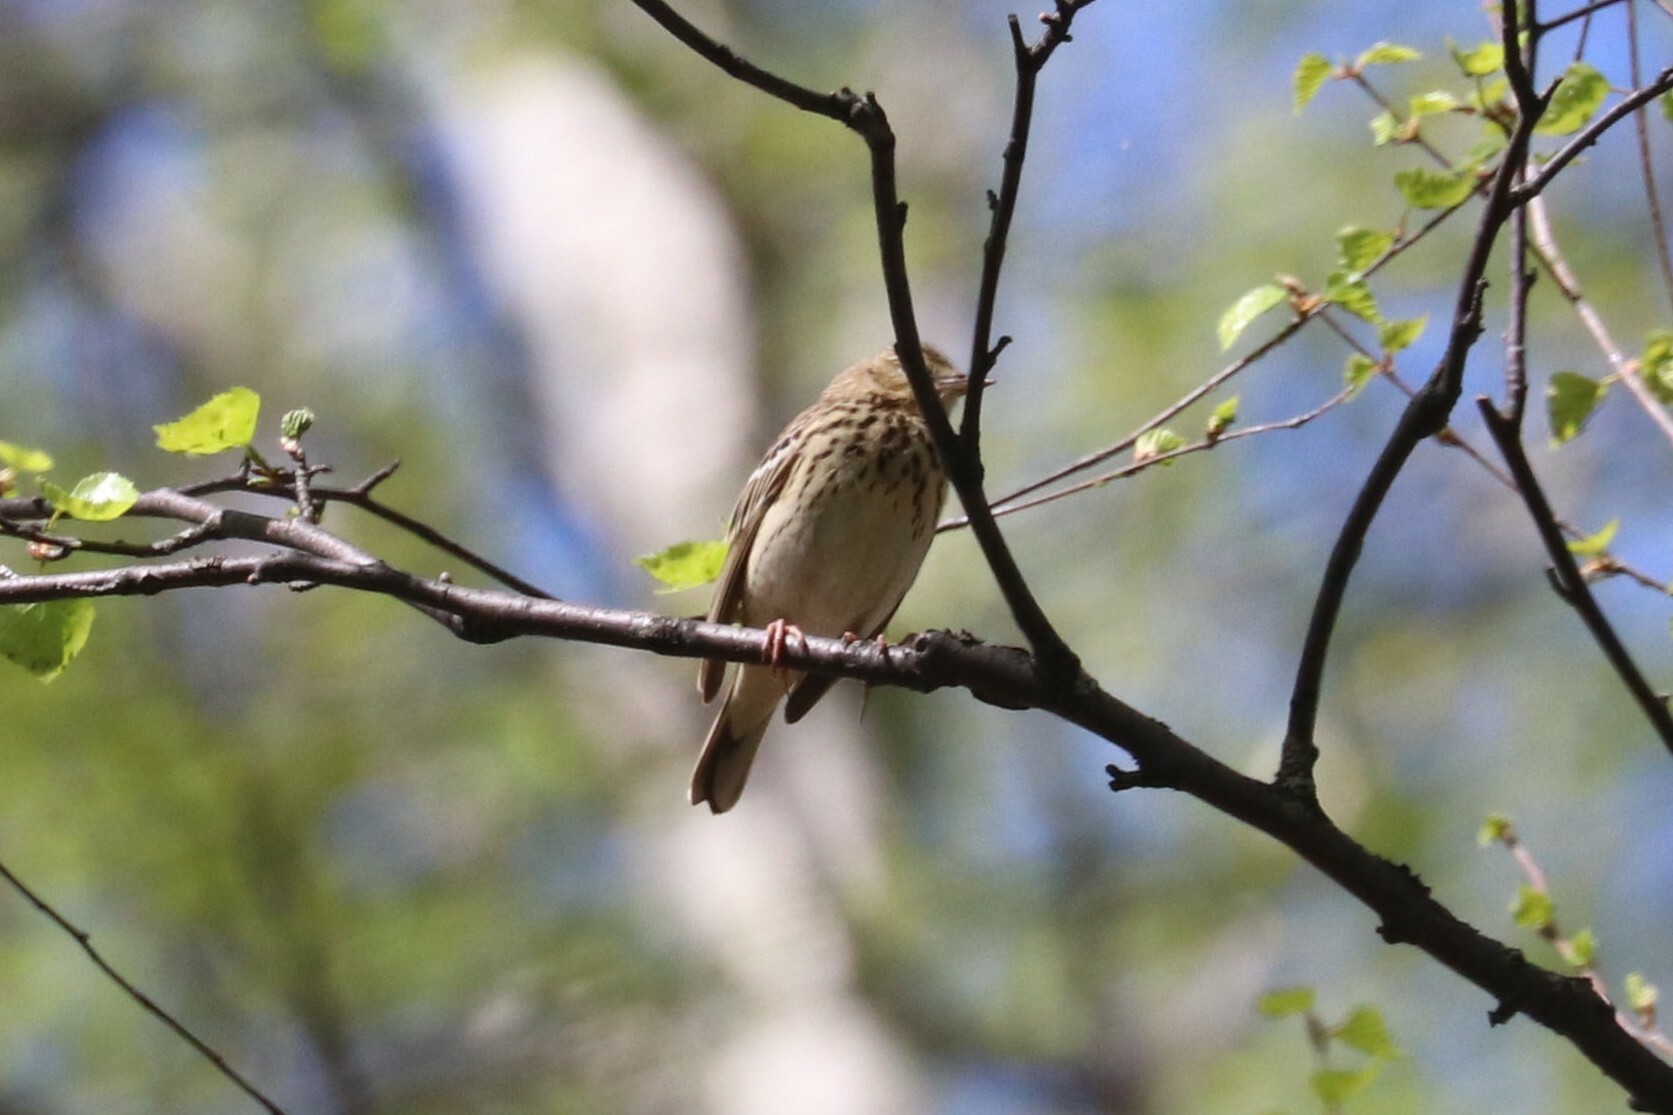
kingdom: Animalia
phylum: Chordata
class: Aves
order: Passeriformes
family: Motacillidae
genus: Anthus
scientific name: Anthus trivialis
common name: Tree pipit
